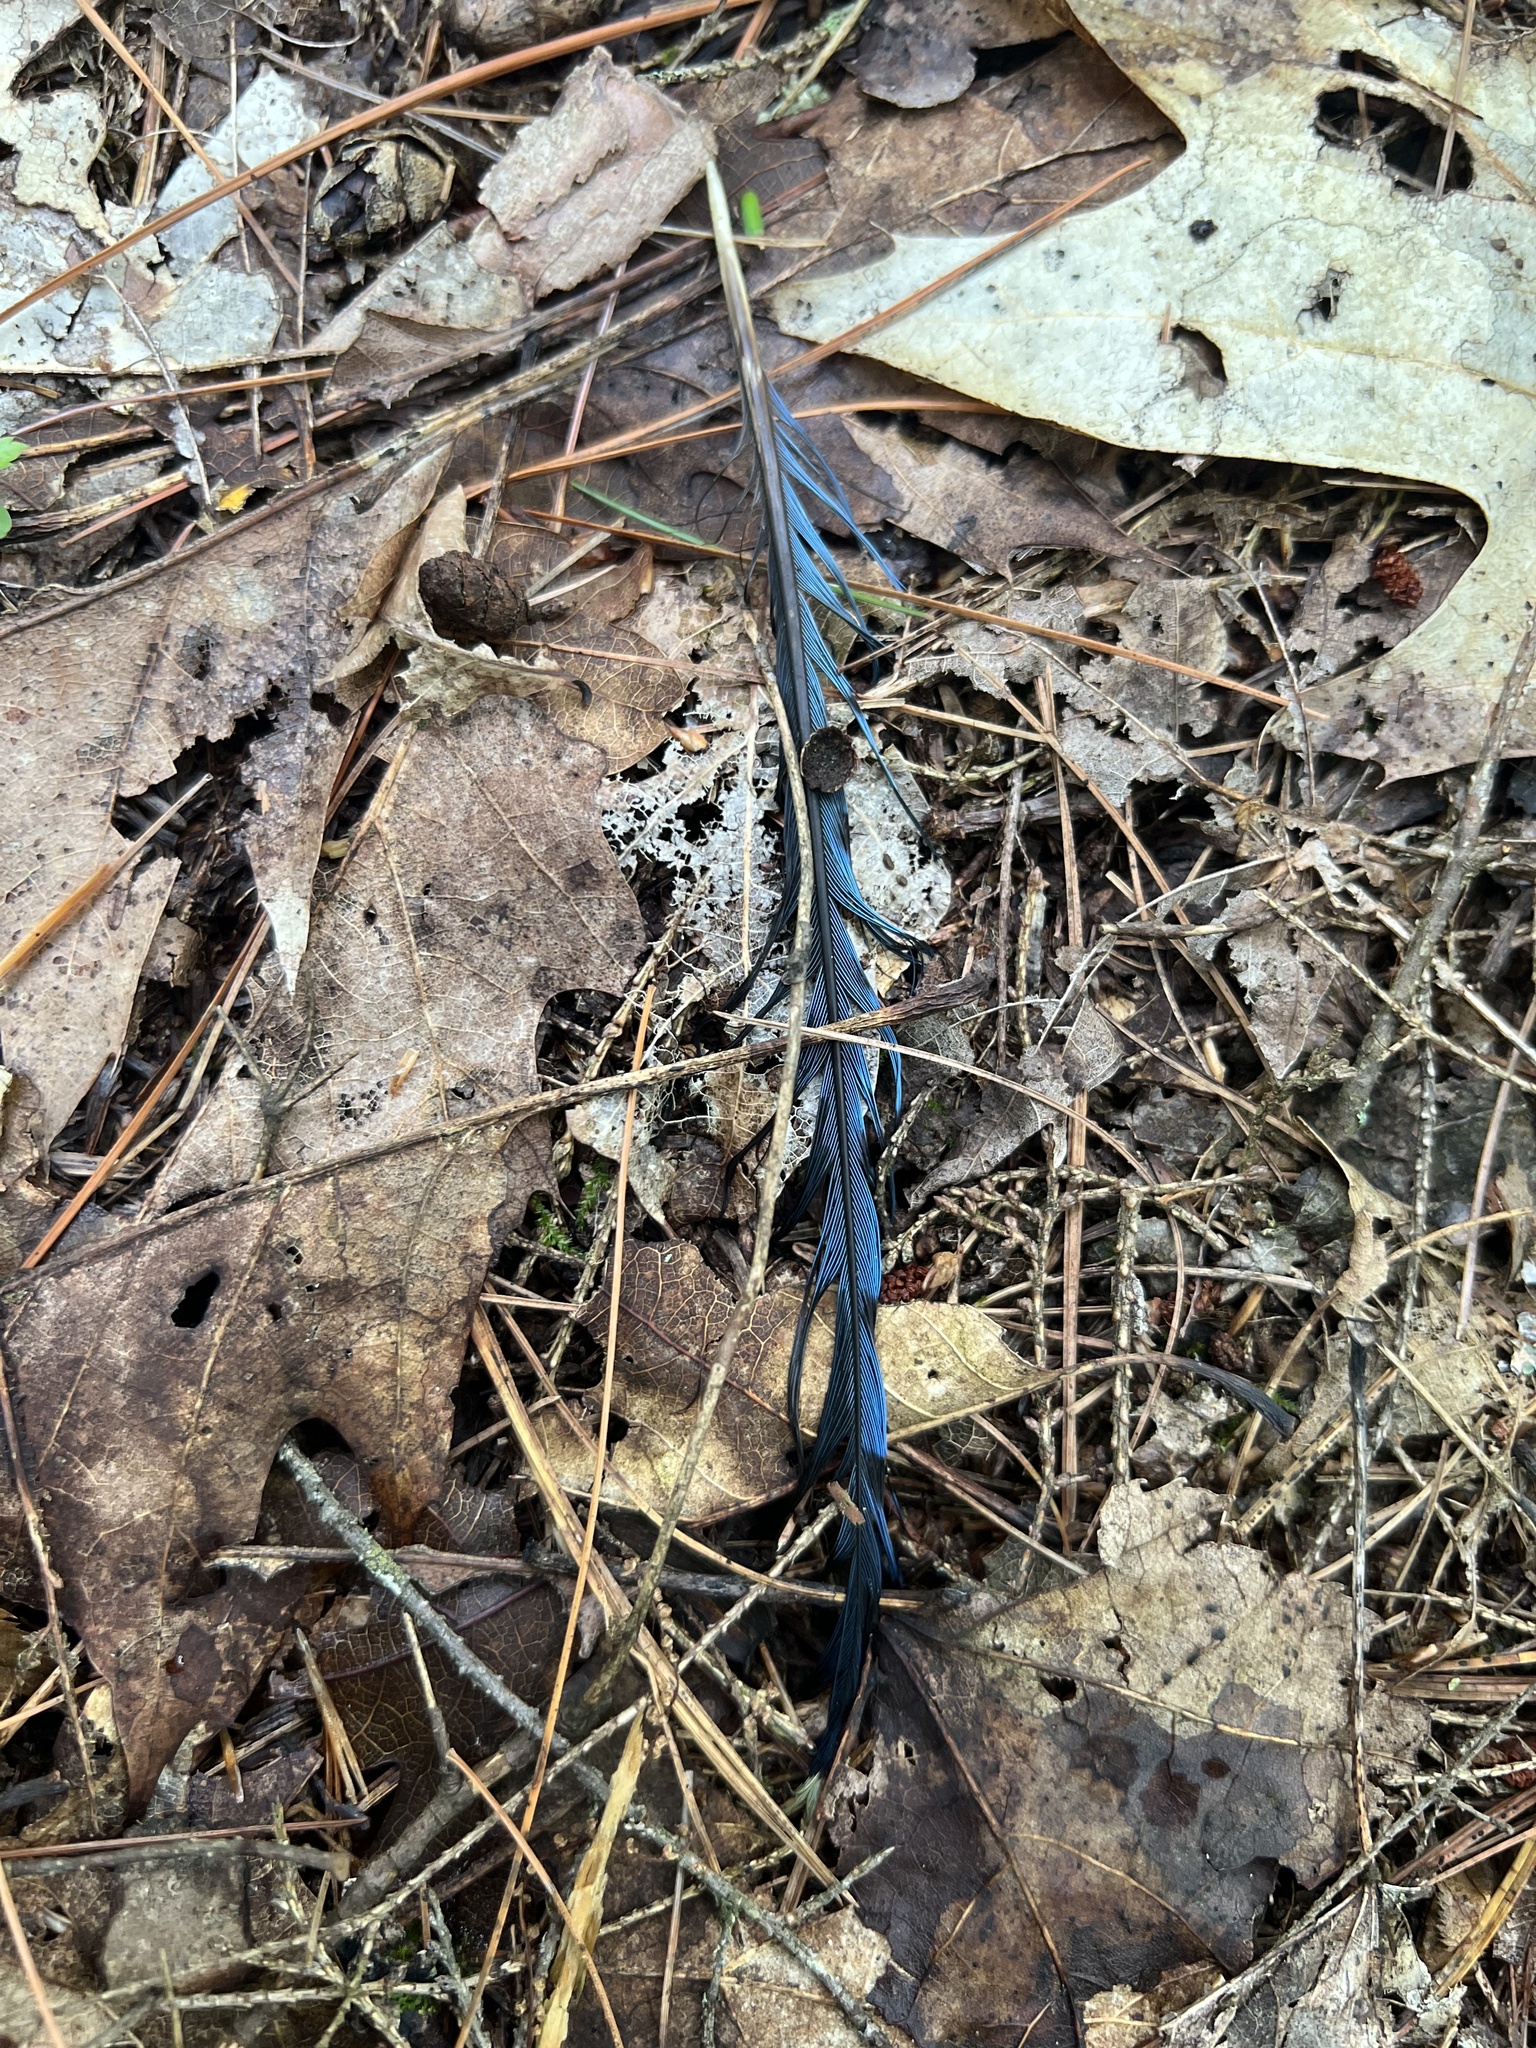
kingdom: Animalia
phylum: Chordata
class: Aves
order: Passeriformes
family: Corvidae
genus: Cyanocitta
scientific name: Cyanocitta cristata
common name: Blue jay
